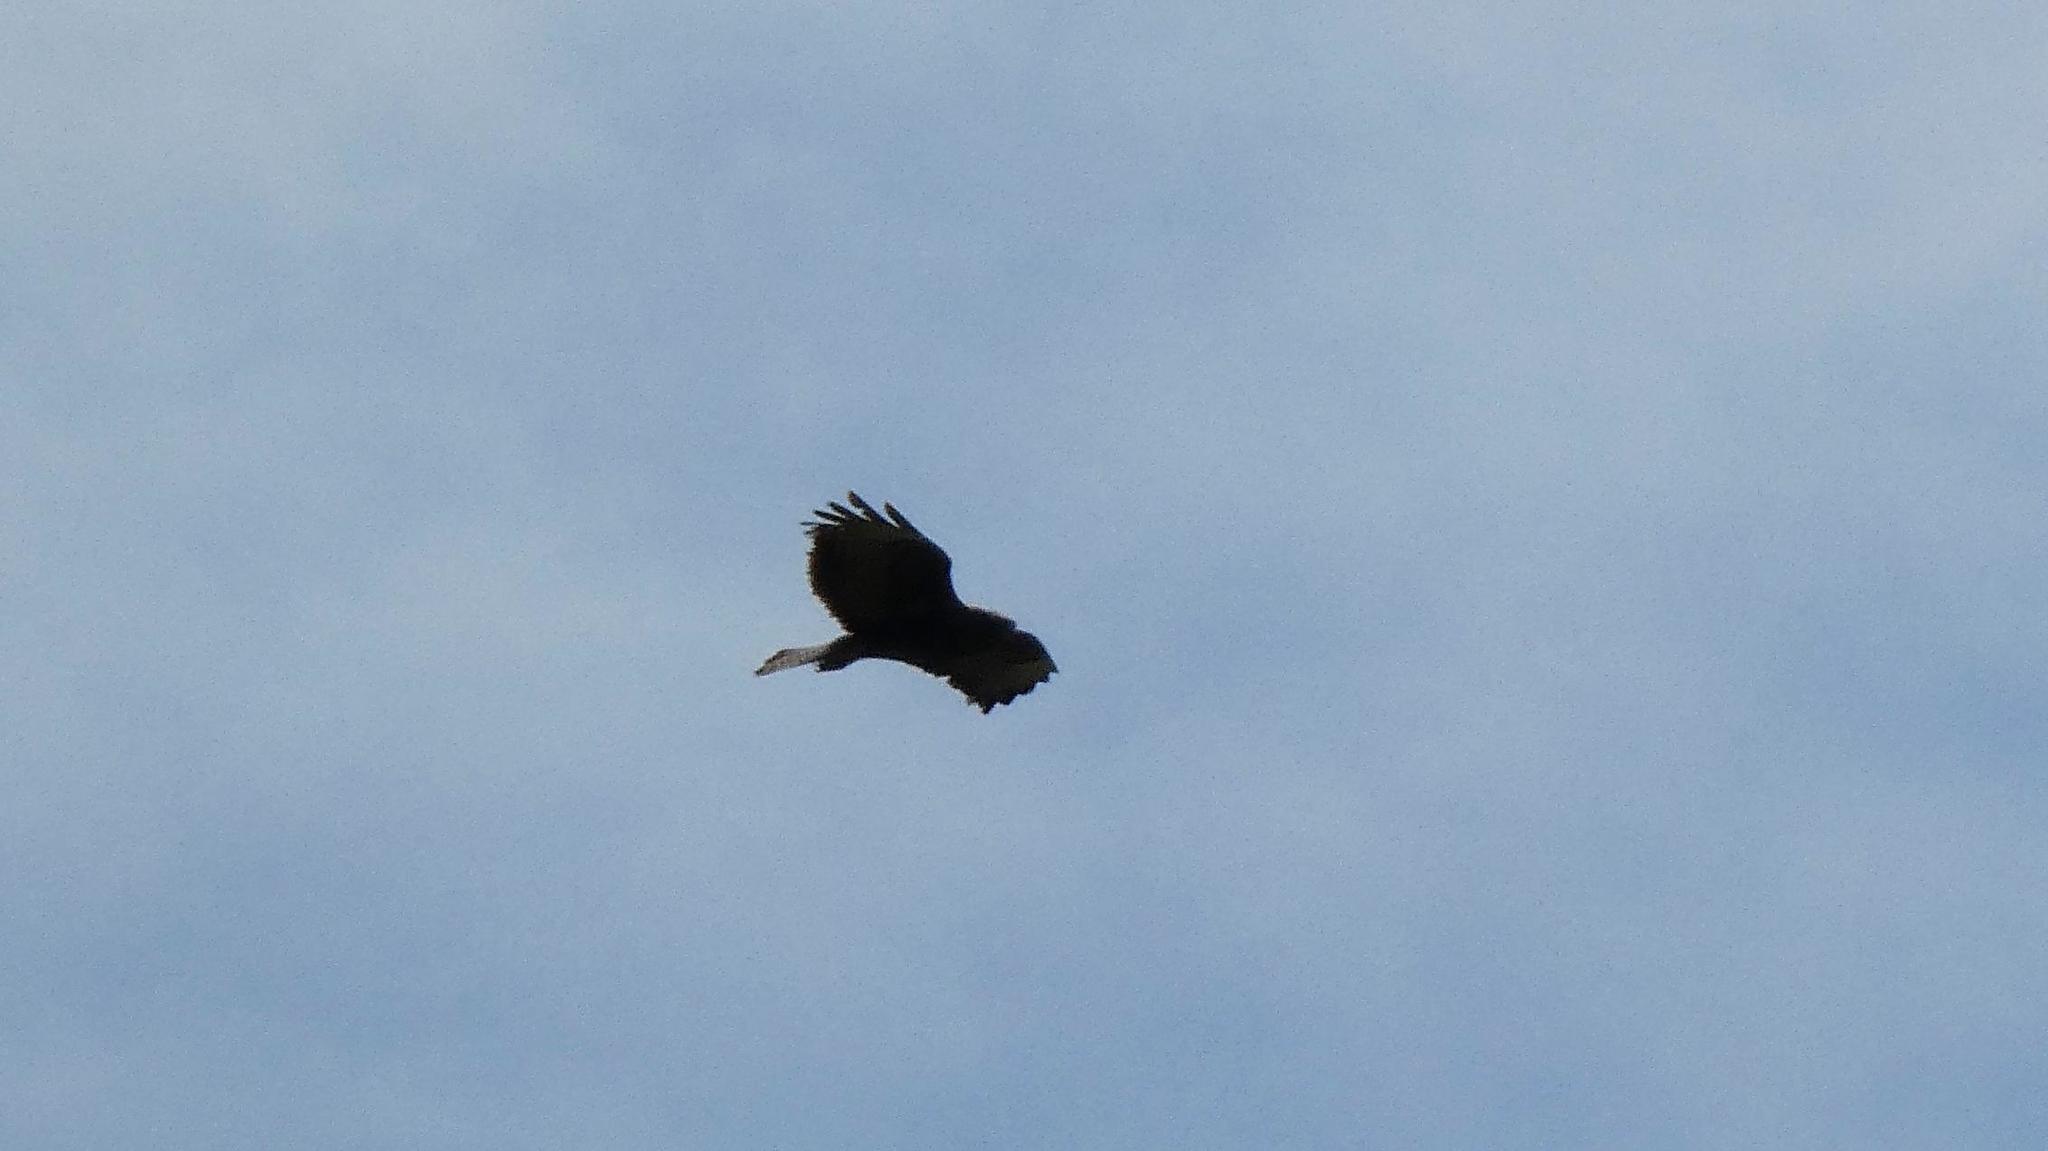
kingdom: Animalia
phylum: Chordata
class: Aves
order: Accipitriformes
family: Accipitridae
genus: Buteo
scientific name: Buteo buteo
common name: Common buzzard
